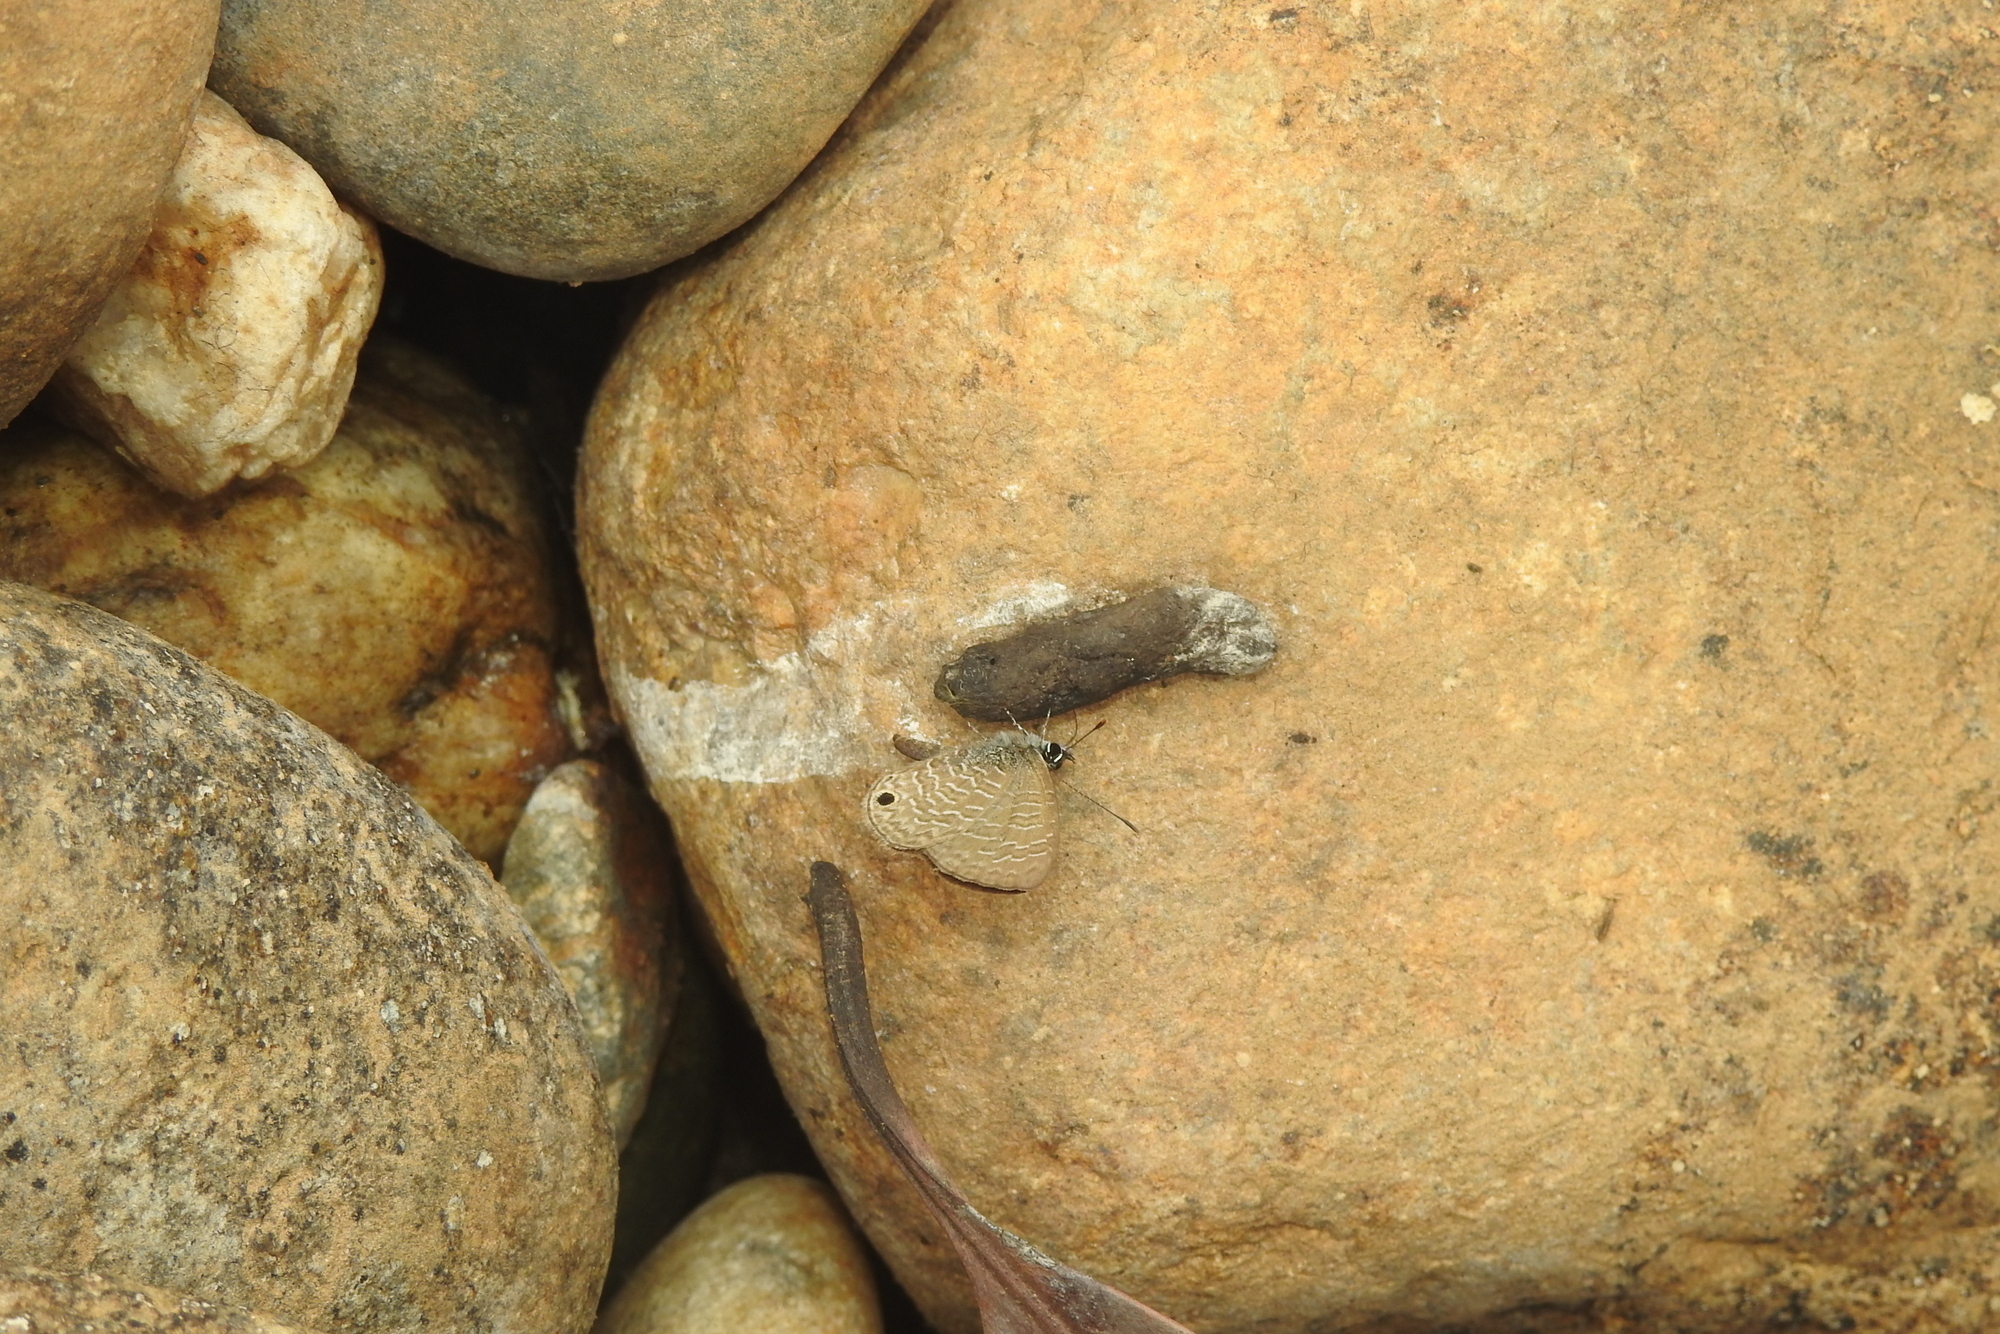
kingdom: Animalia
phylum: Arthropoda
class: Insecta
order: Lepidoptera
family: Lycaenidae
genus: Prosotas
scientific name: Prosotas dubiosa
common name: Tailless lineblue
